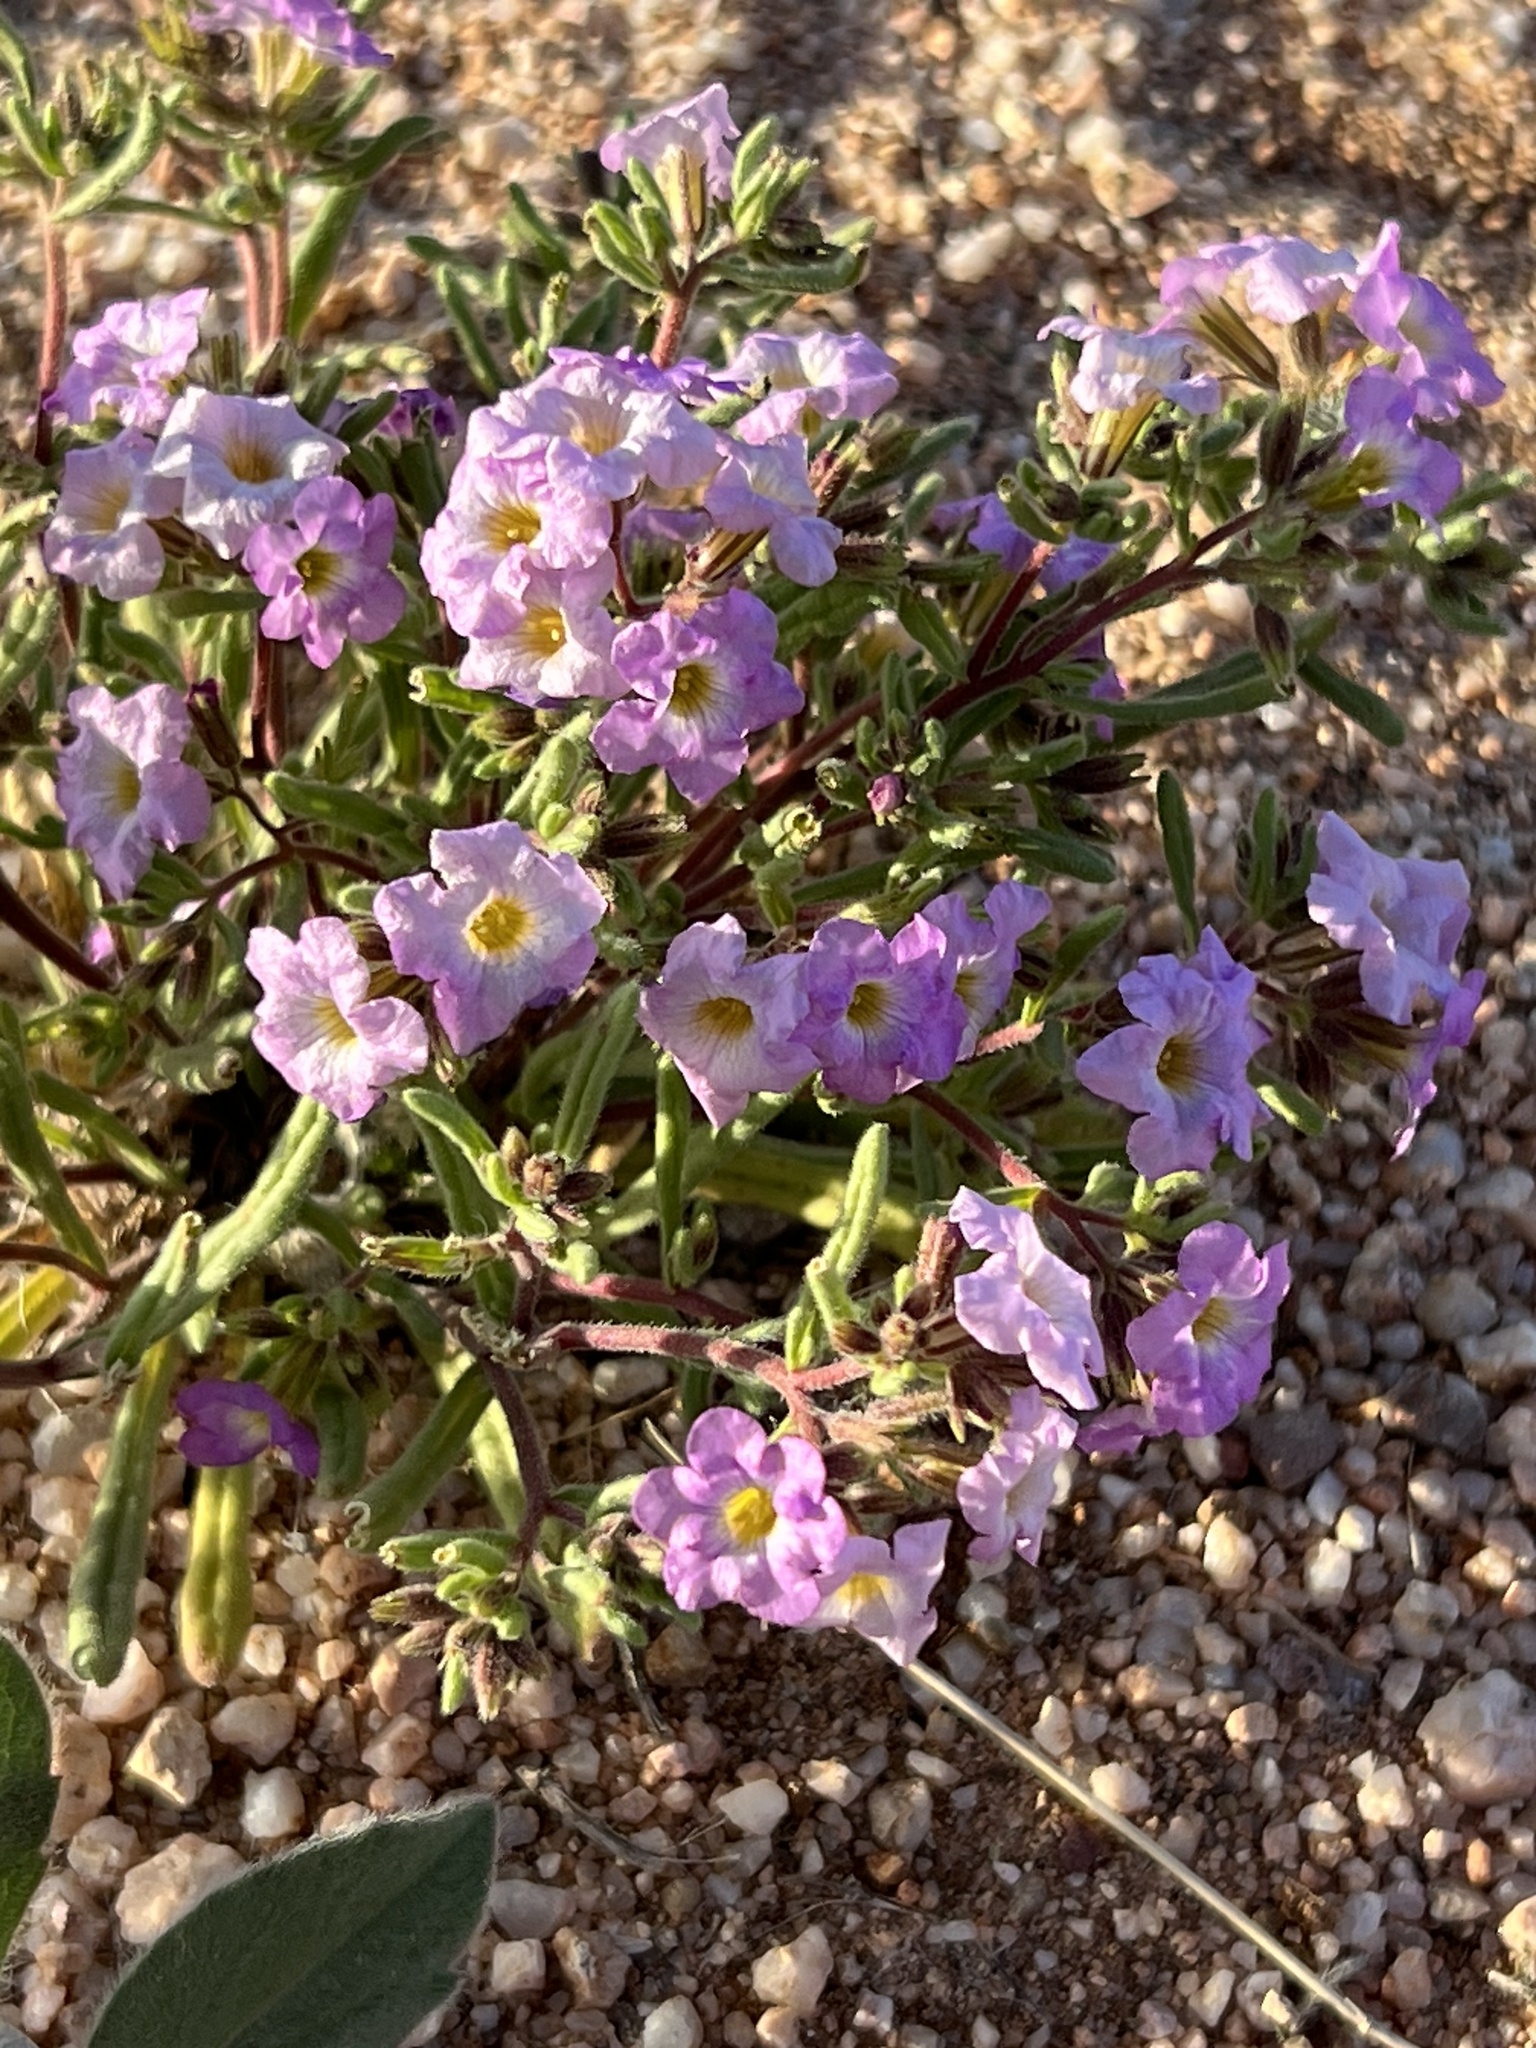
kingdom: Plantae
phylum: Tracheophyta
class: Magnoliopsida
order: Boraginales
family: Namaceae
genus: Nama
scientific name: Nama hispida
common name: Bristly nama
